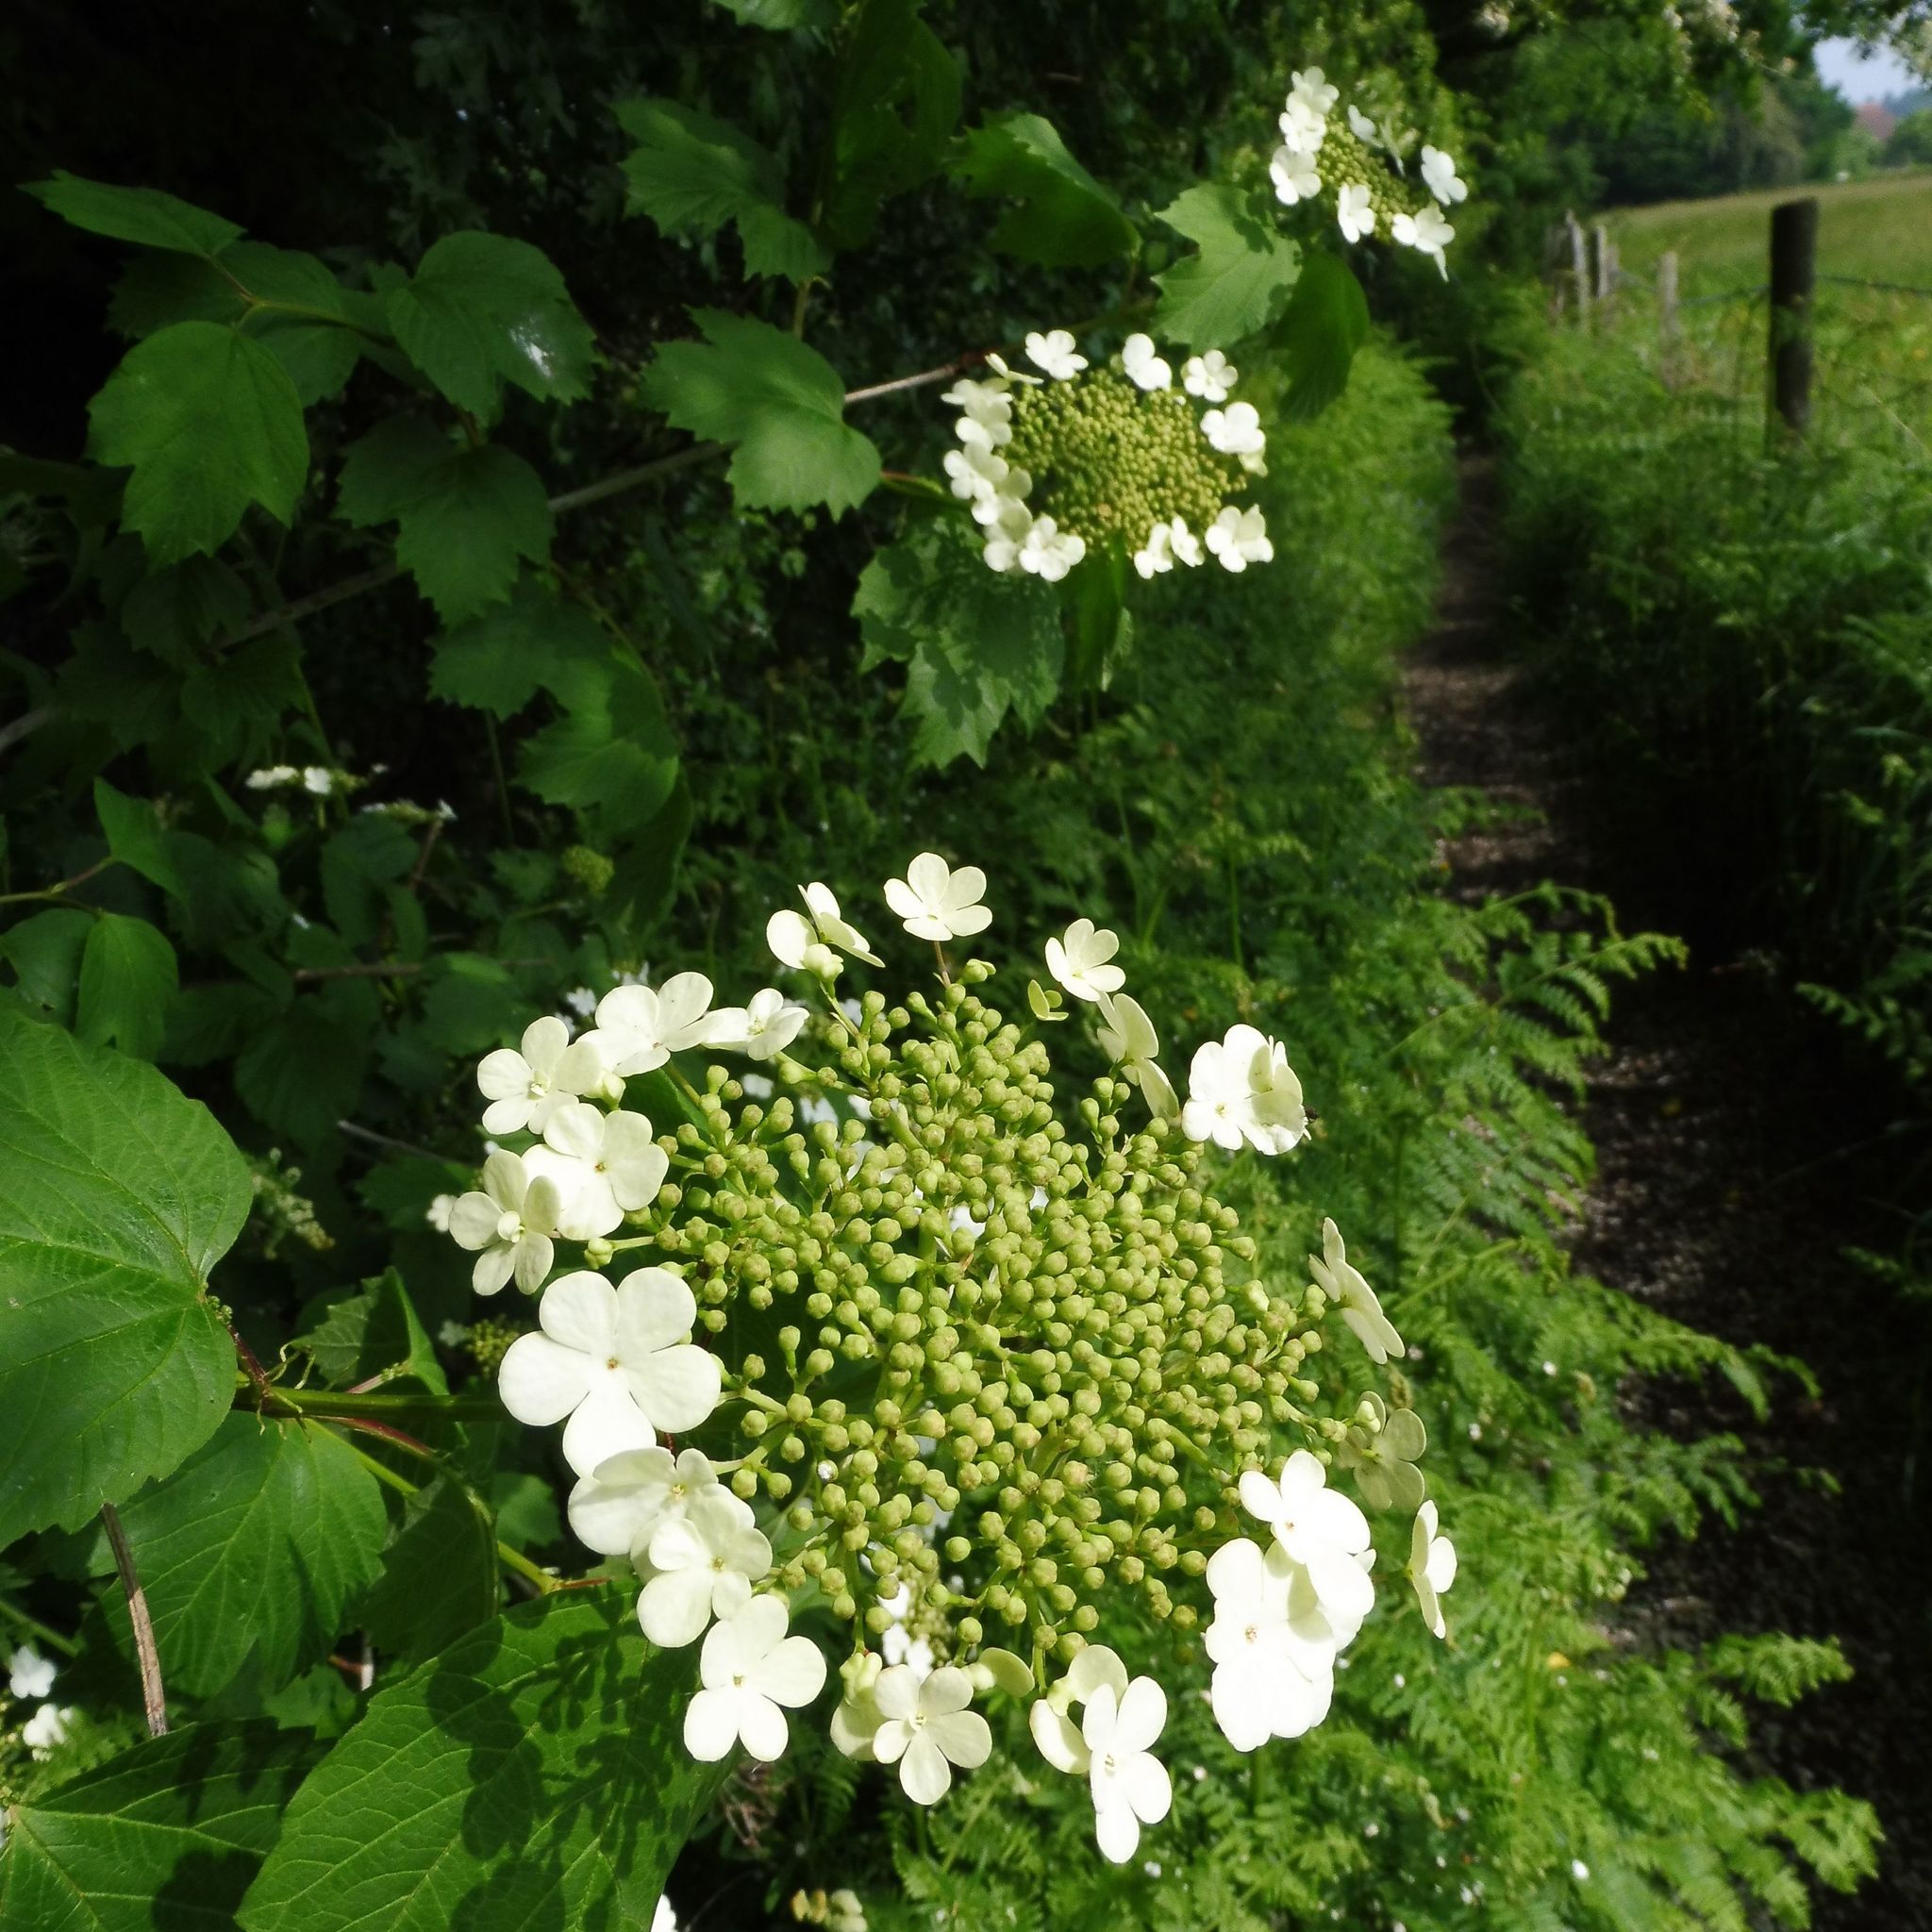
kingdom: Plantae
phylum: Tracheophyta
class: Magnoliopsida
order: Dipsacales
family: Viburnaceae
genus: Viburnum
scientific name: Viburnum opulus
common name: Guelder-rose
